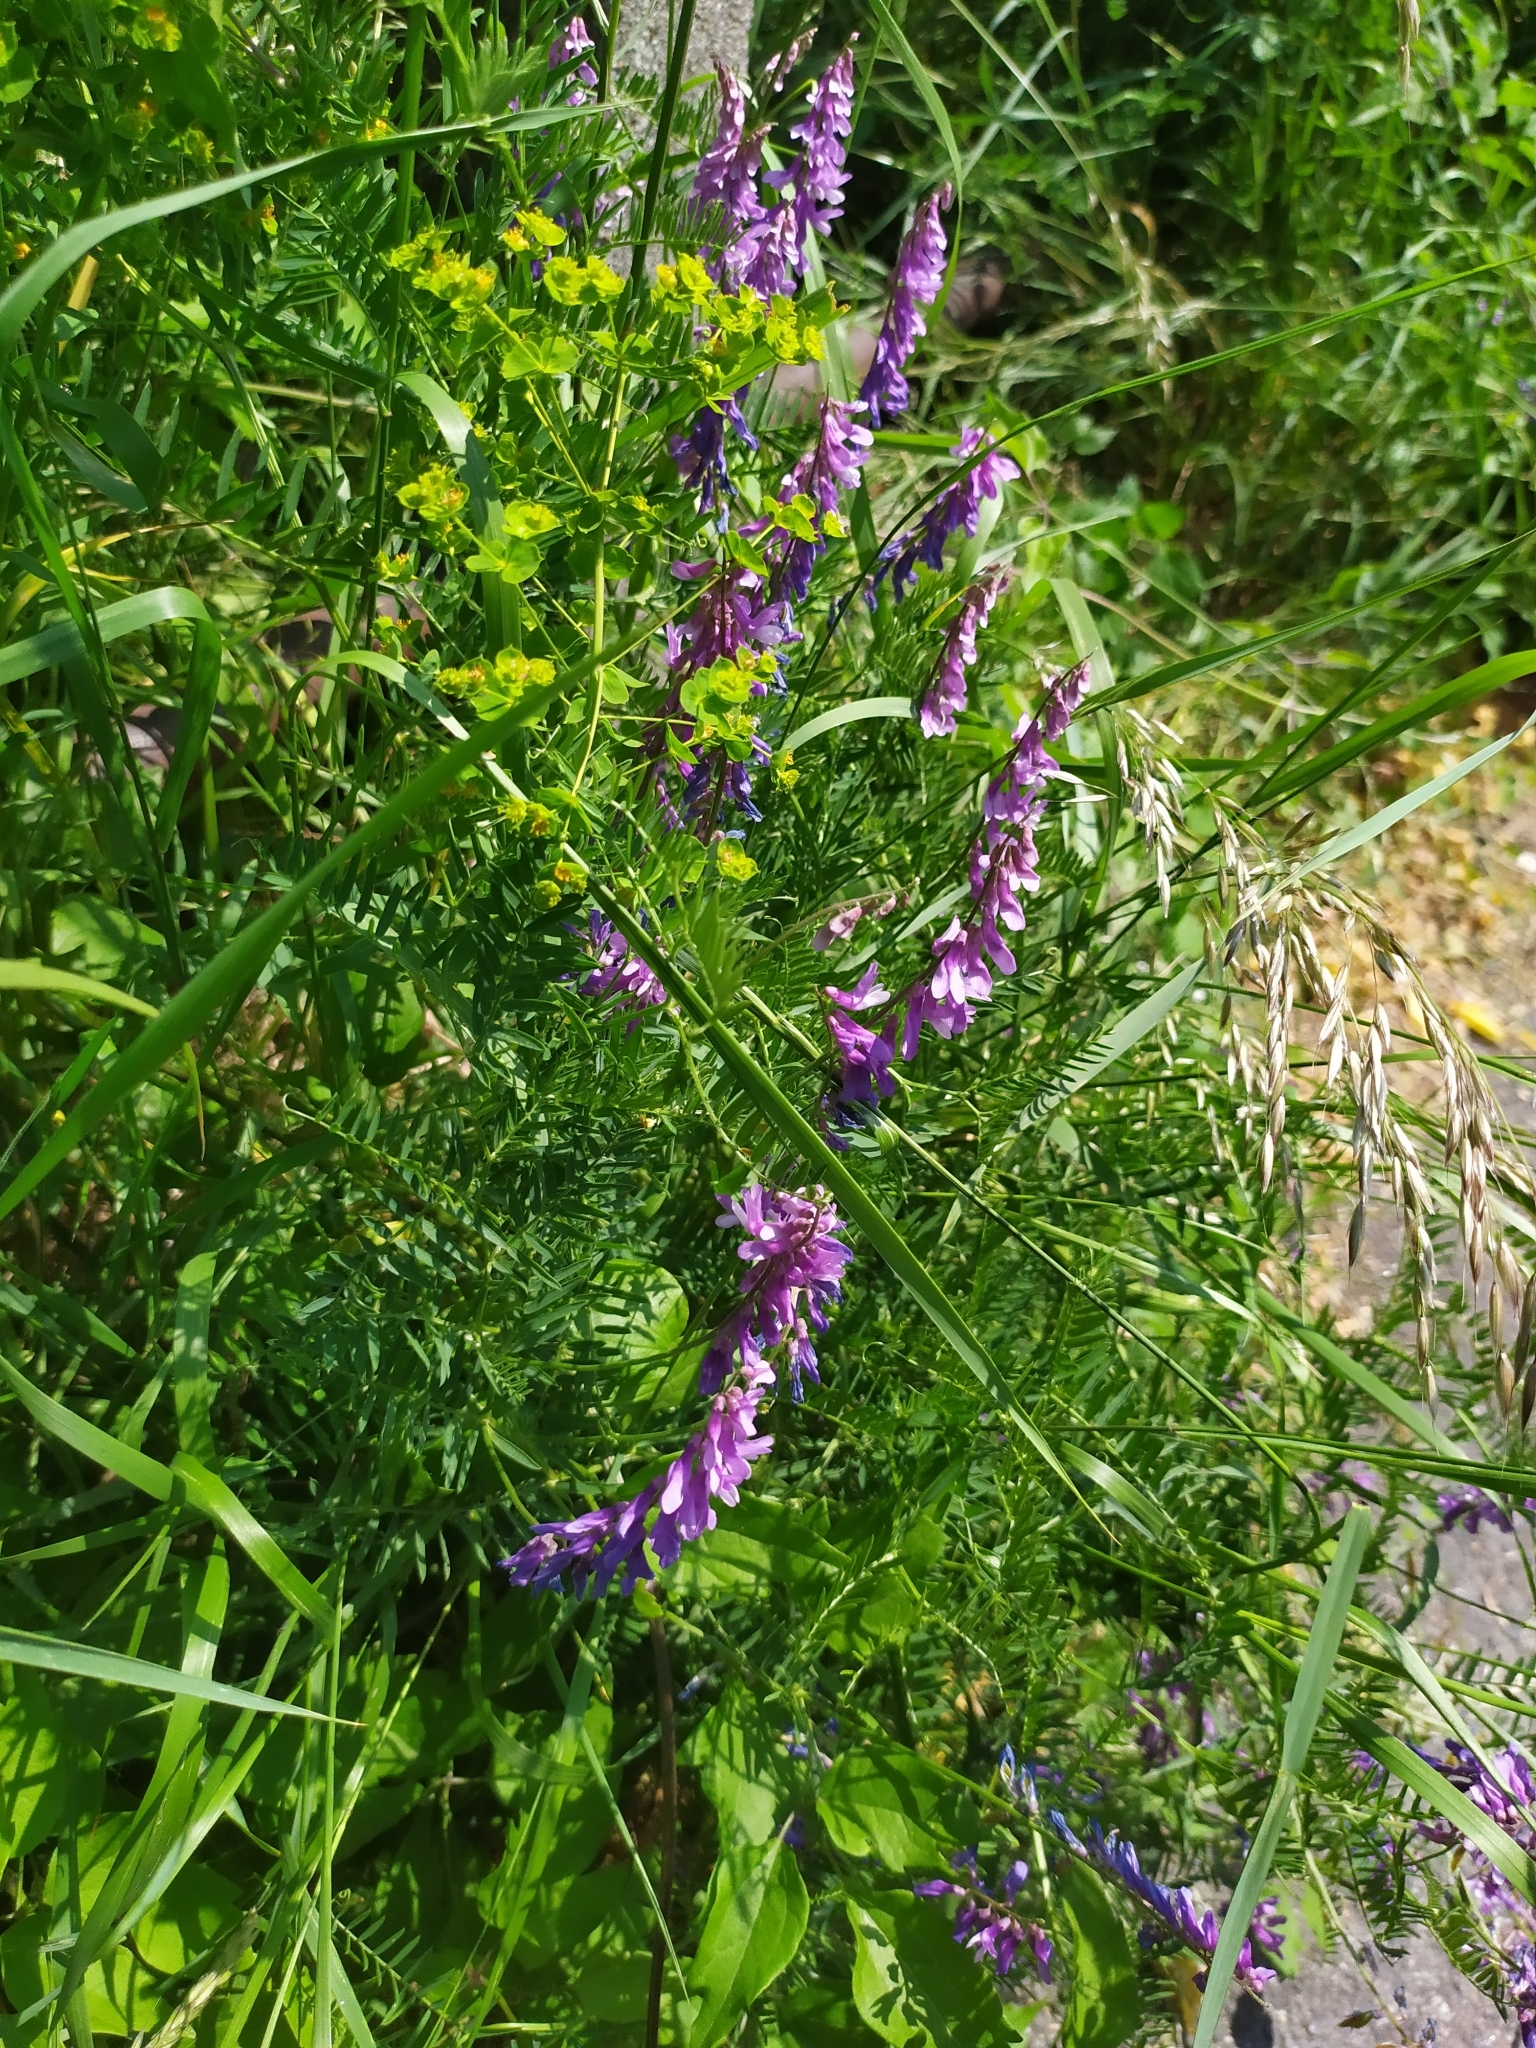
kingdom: Plantae
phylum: Tracheophyta
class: Magnoliopsida
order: Fabales
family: Fabaceae
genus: Vicia
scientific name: Vicia tenuifolia
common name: Fine-leaved vetch
